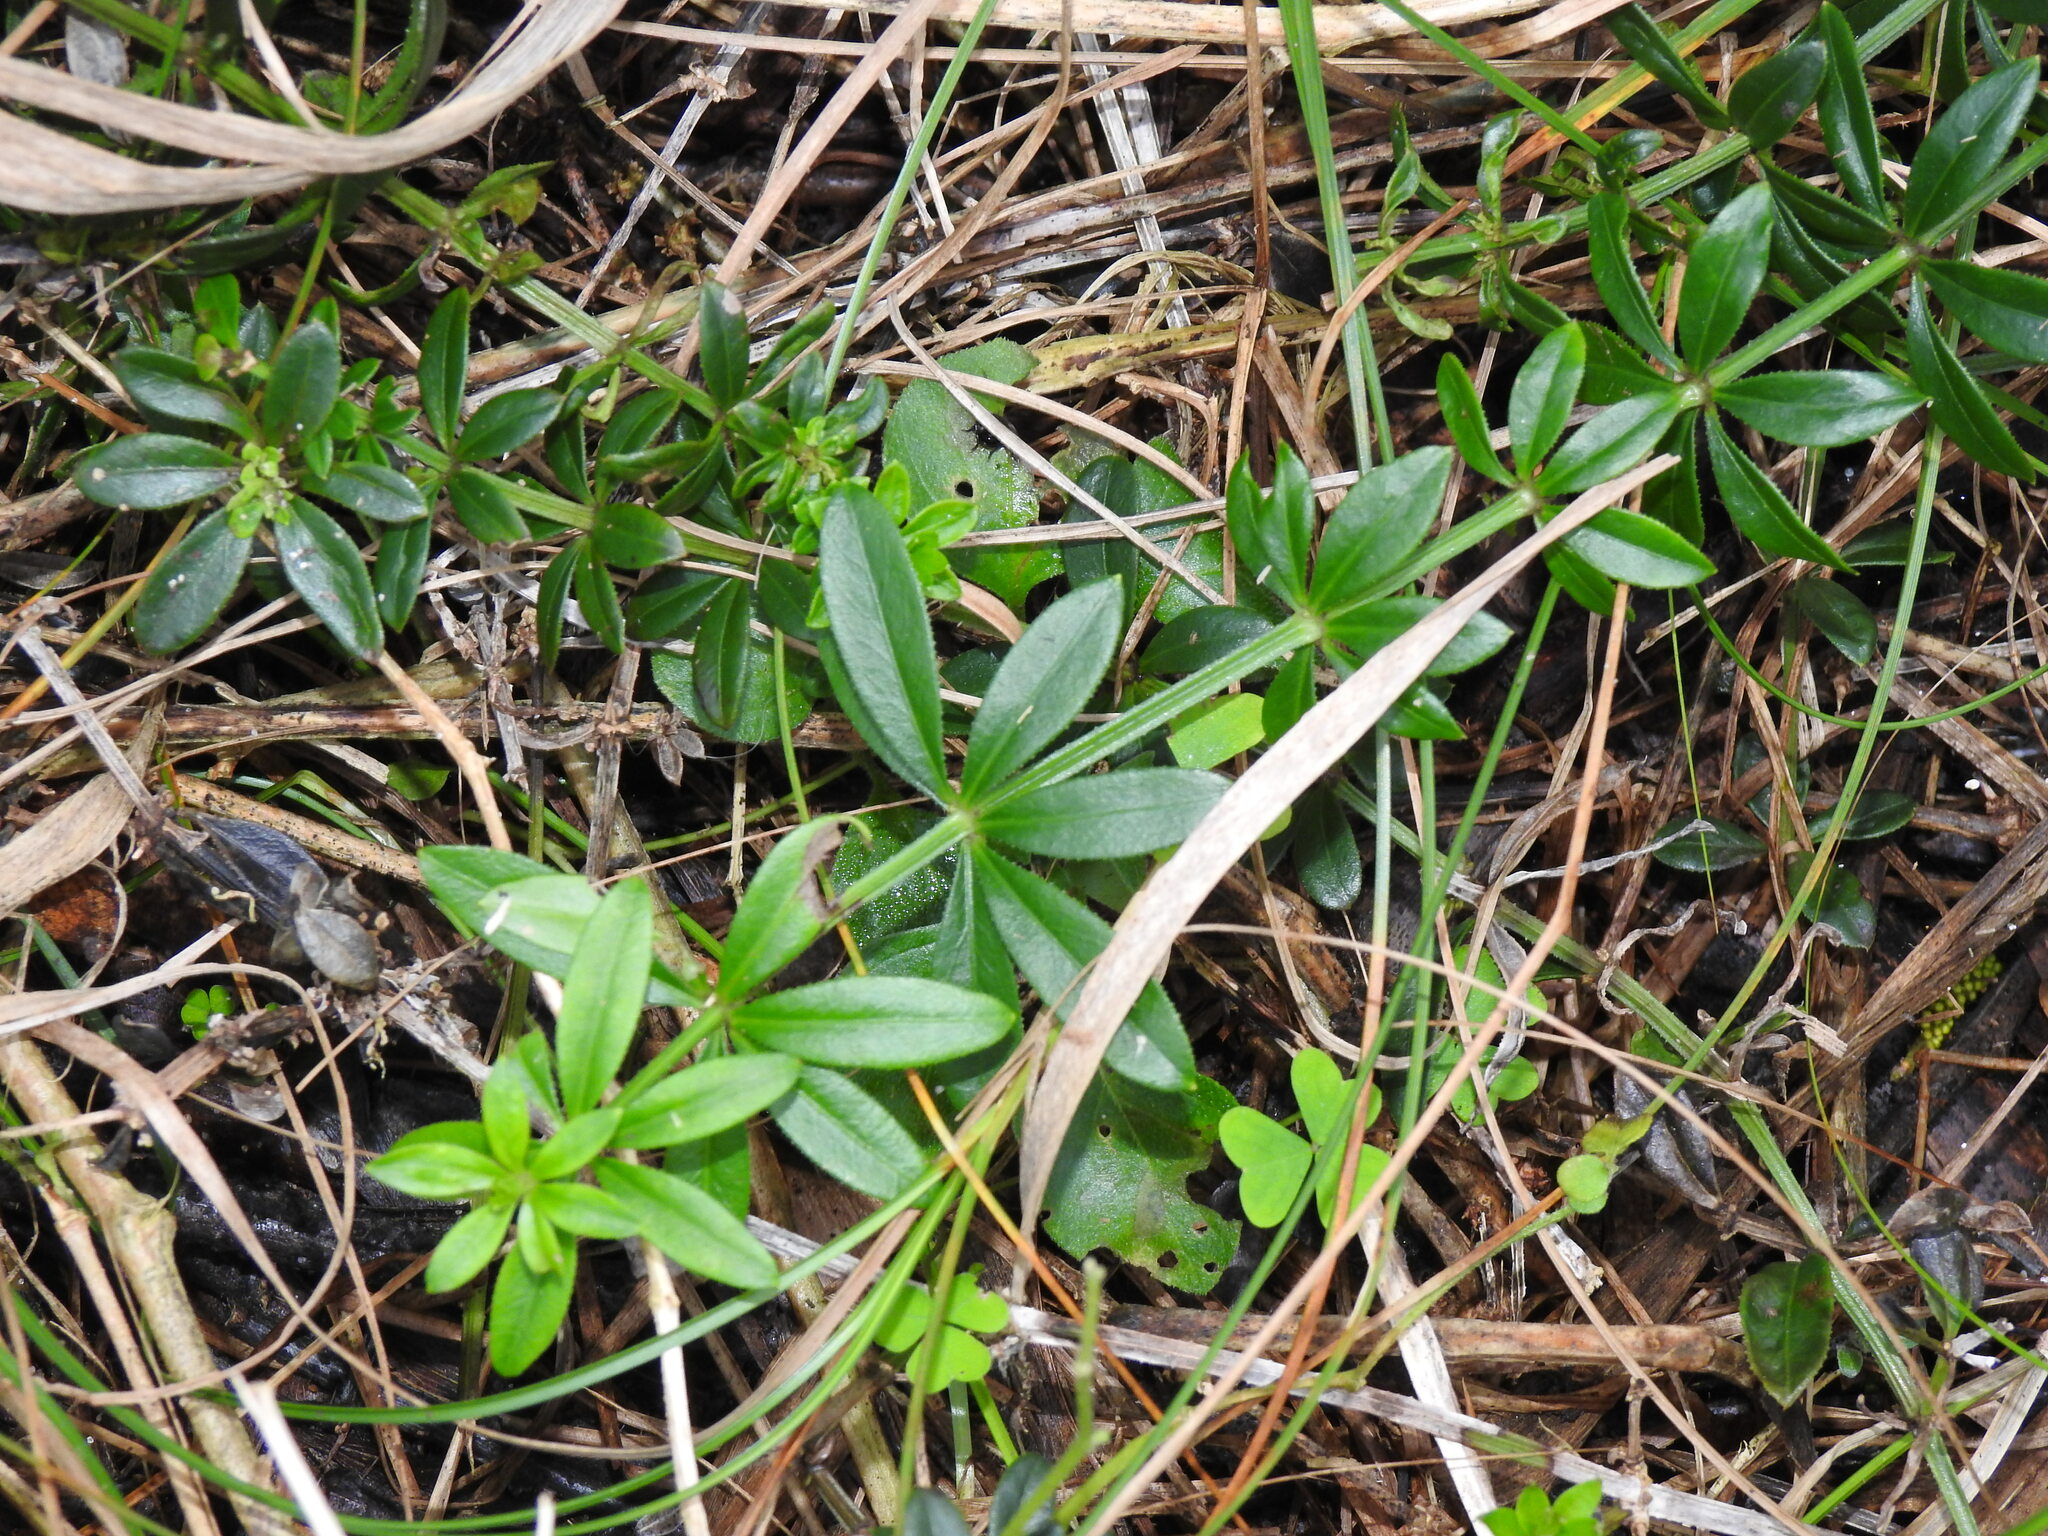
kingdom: Plantae
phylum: Tracheophyta
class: Magnoliopsida
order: Gentianales
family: Rubiaceae
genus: Rubia
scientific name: Rubia peregrina
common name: Wild madder
